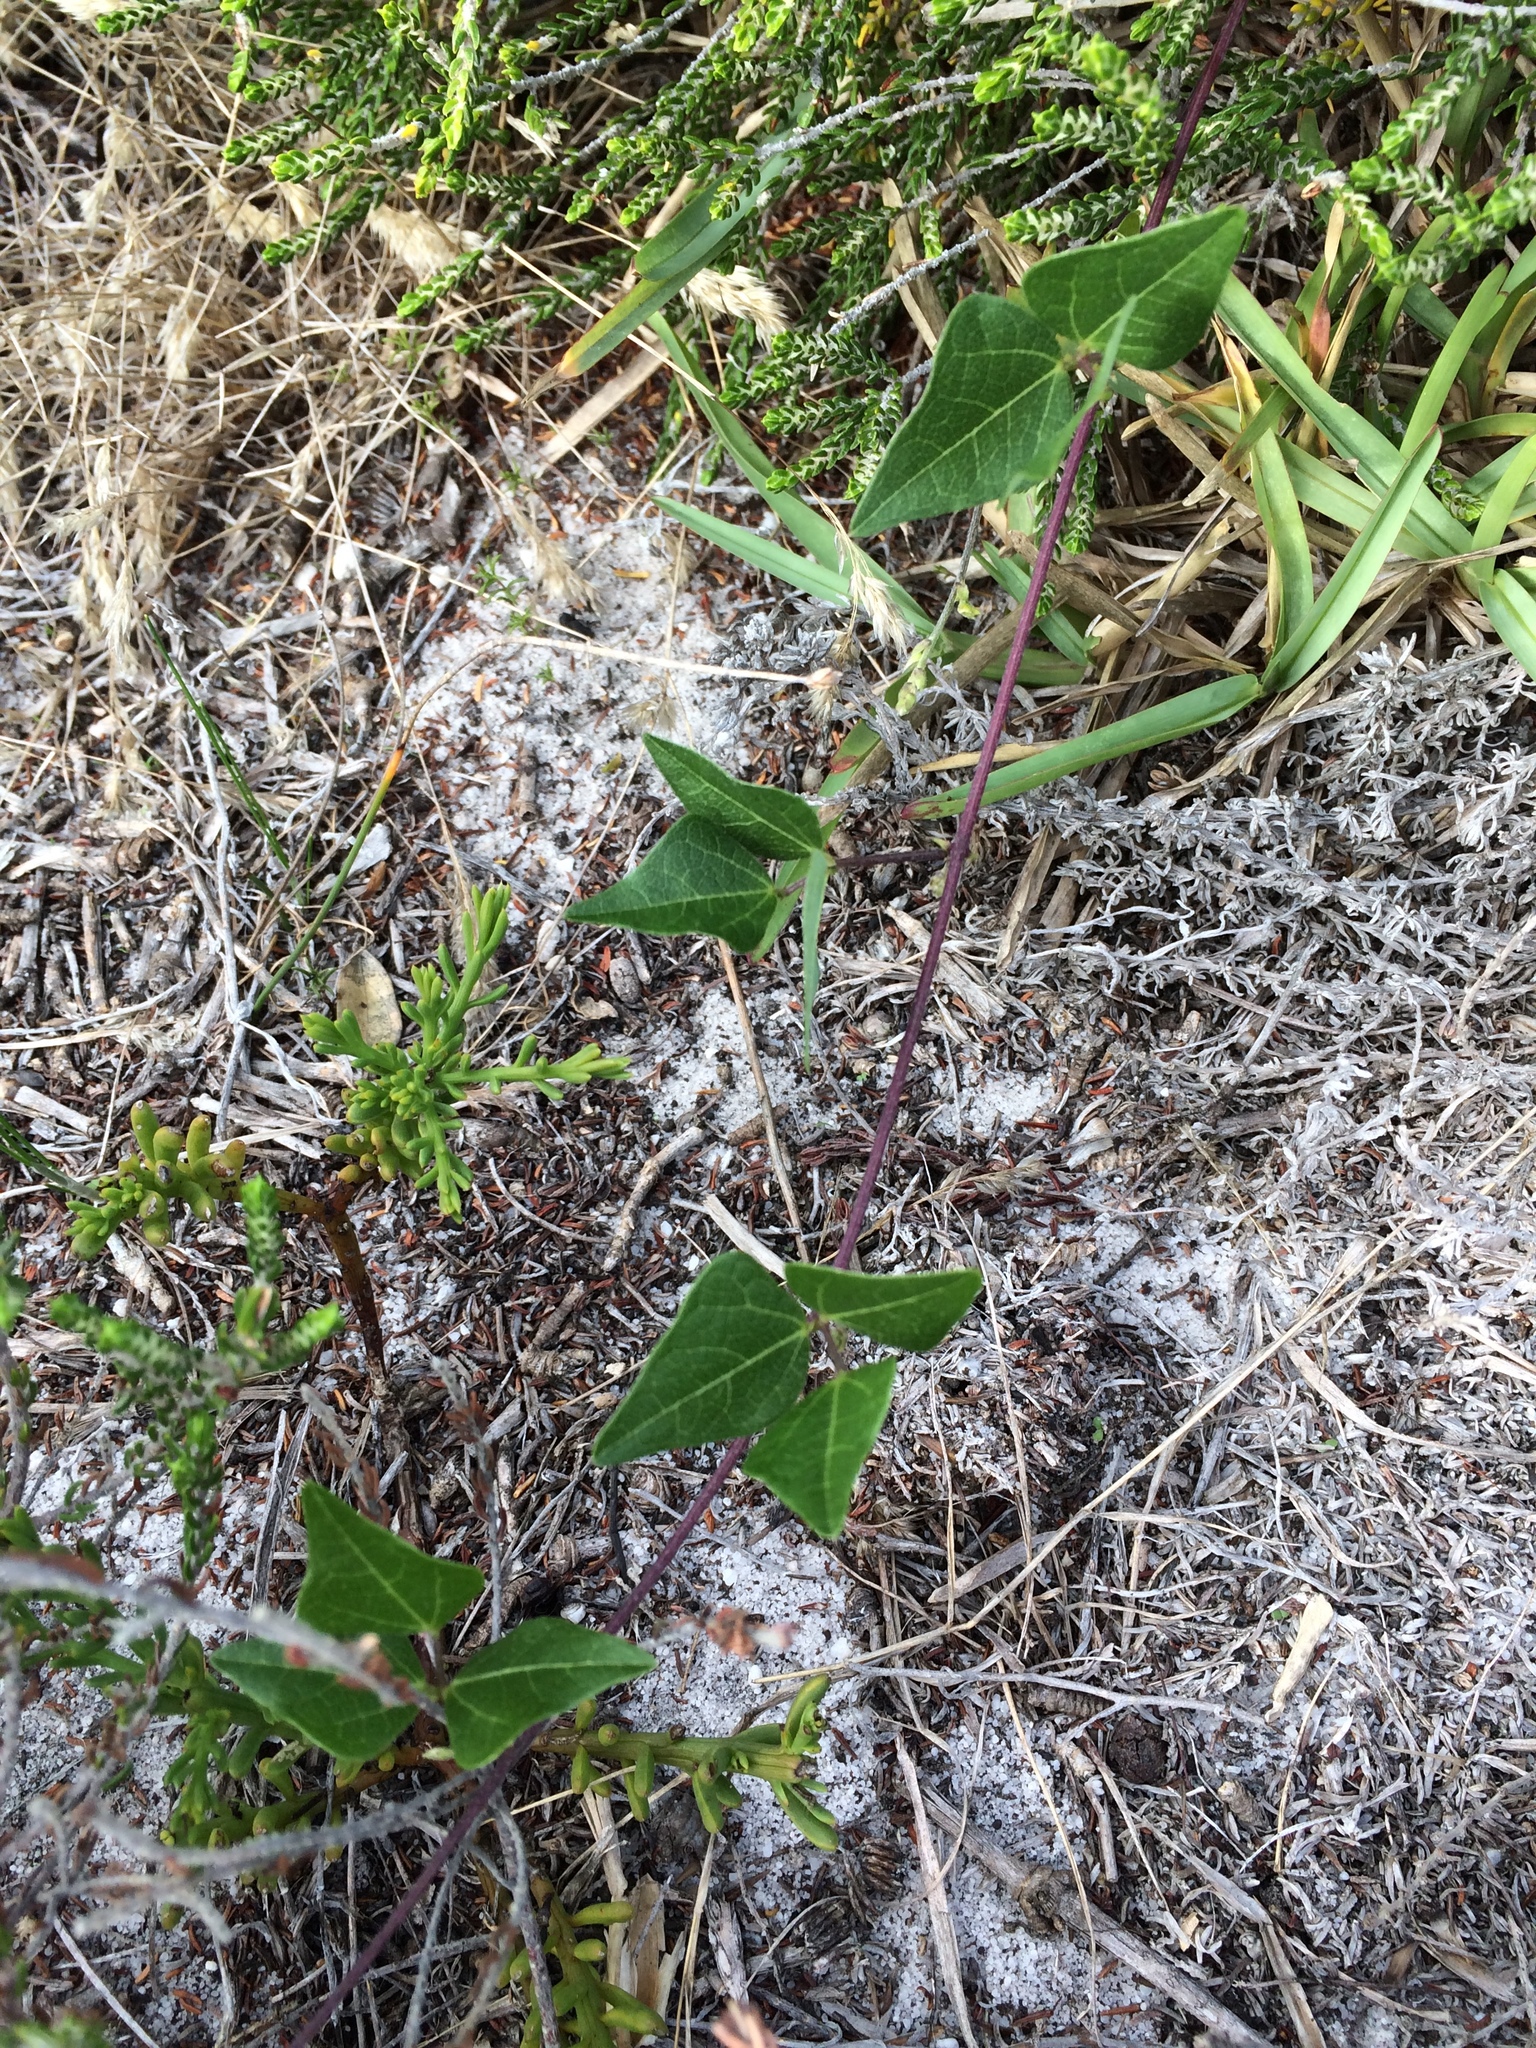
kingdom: Plantae
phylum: Tracheophyta
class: Magnoliopsida
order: Fabales
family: Fabaceae
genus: Dipogon
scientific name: Dipogon lignosus
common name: Okie bean
